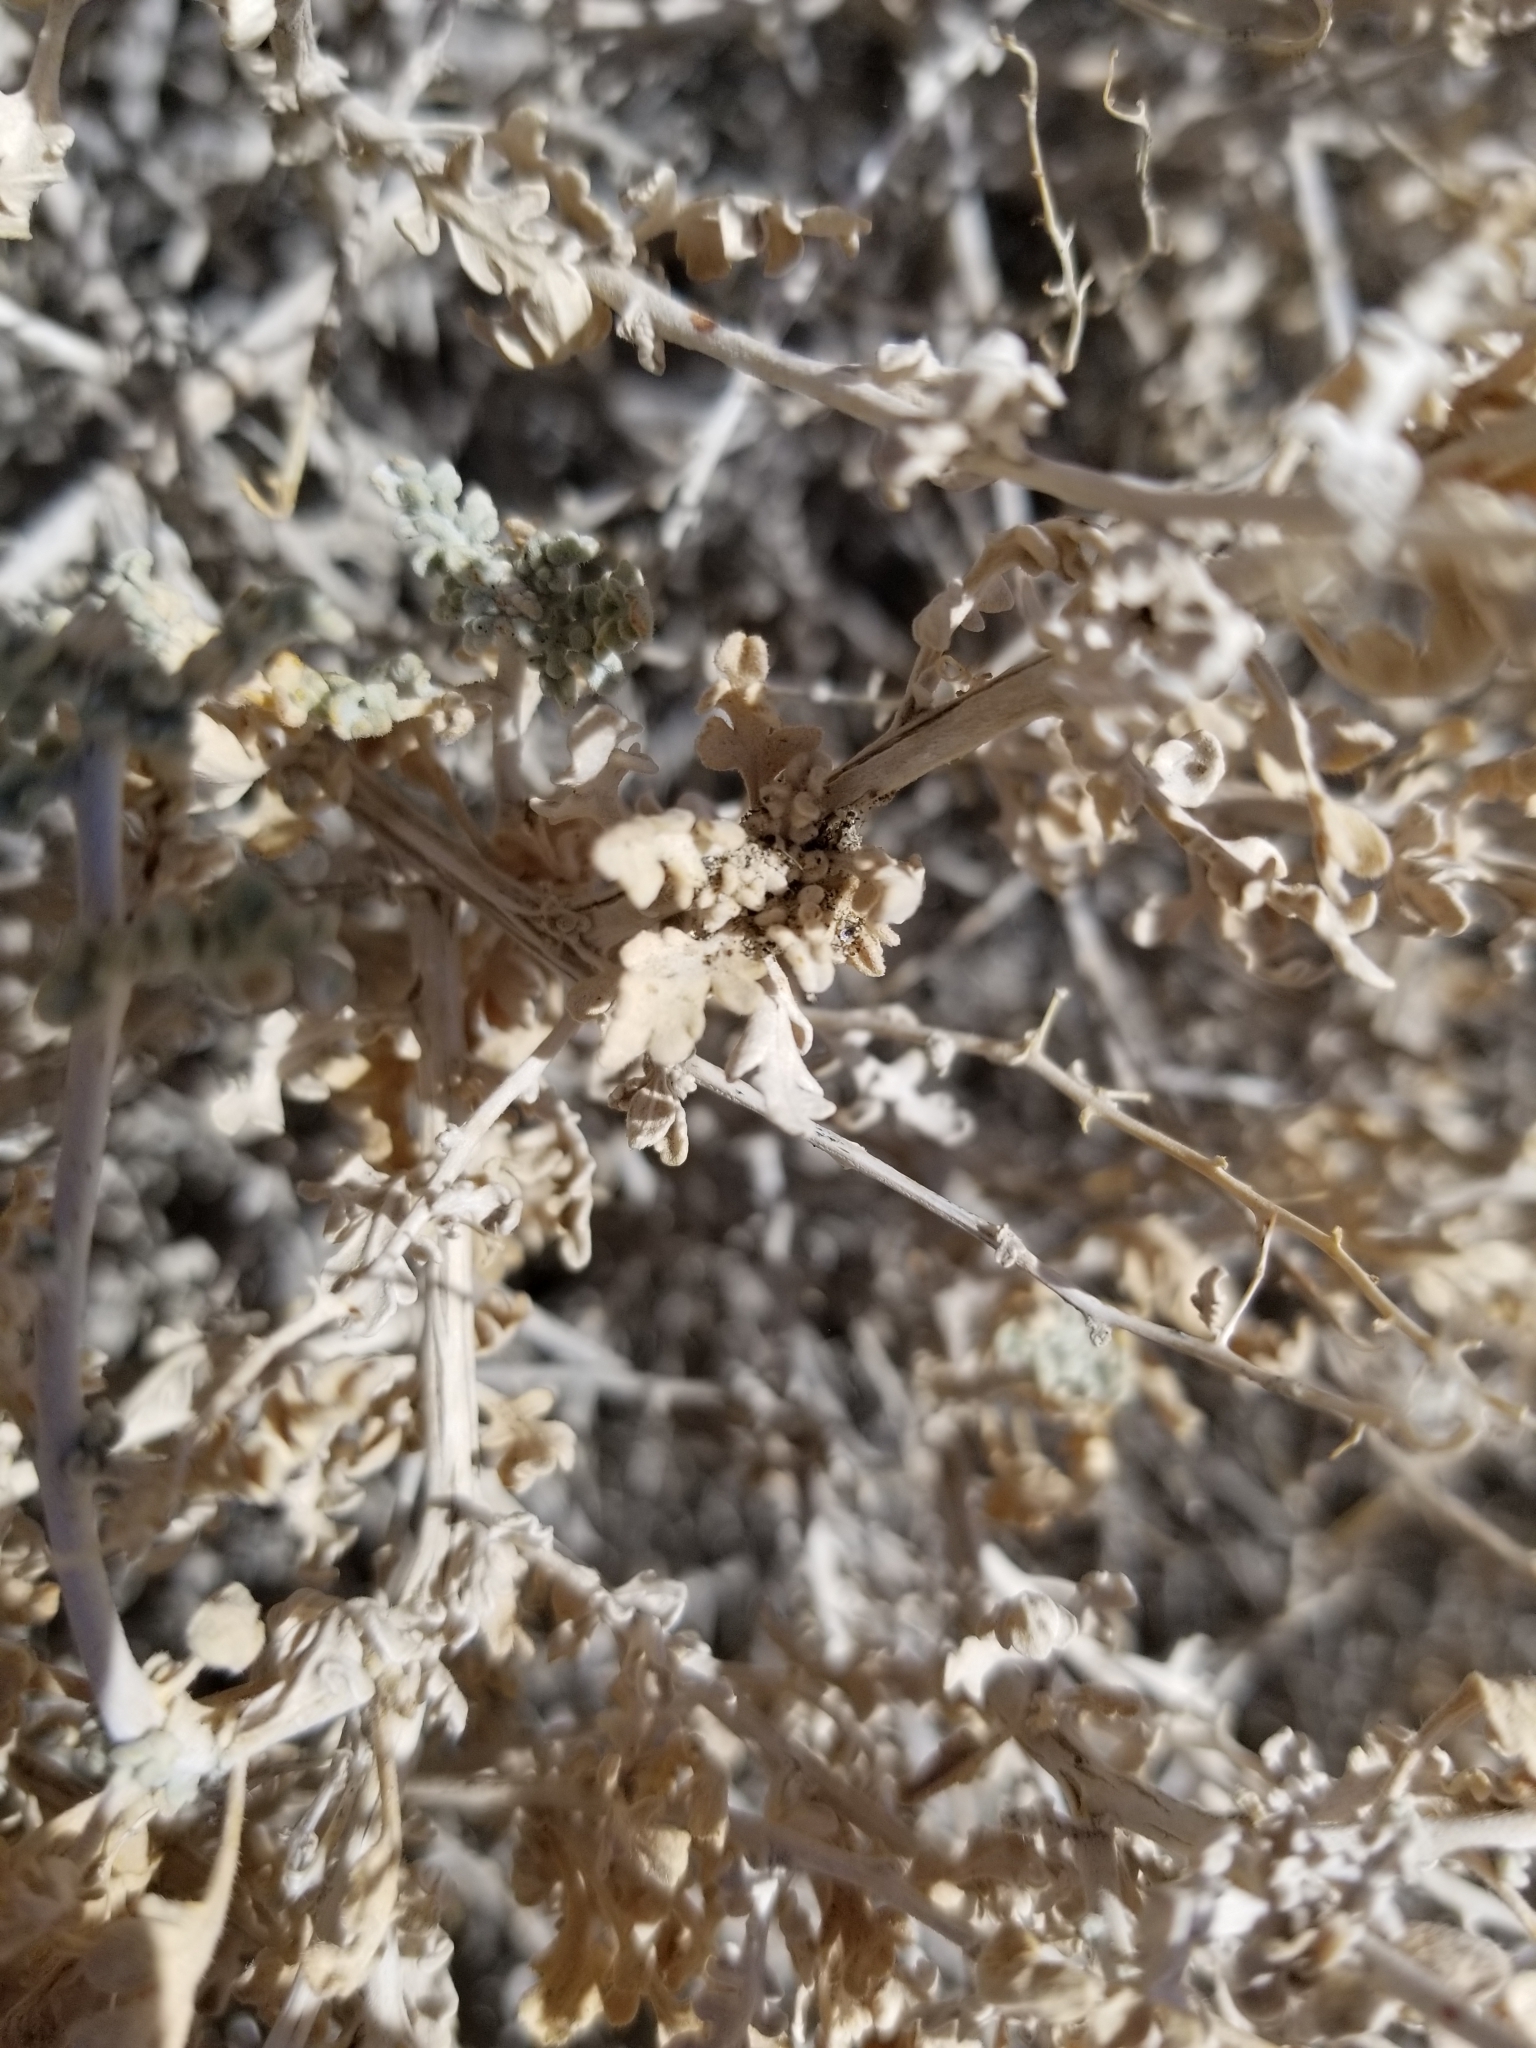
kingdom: Plantae
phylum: Tracheophyta
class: Magnoliopsida
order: Asterales
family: Asteraceae
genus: Ambrosia
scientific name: Ambrosia dumosa
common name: Bur-sage
